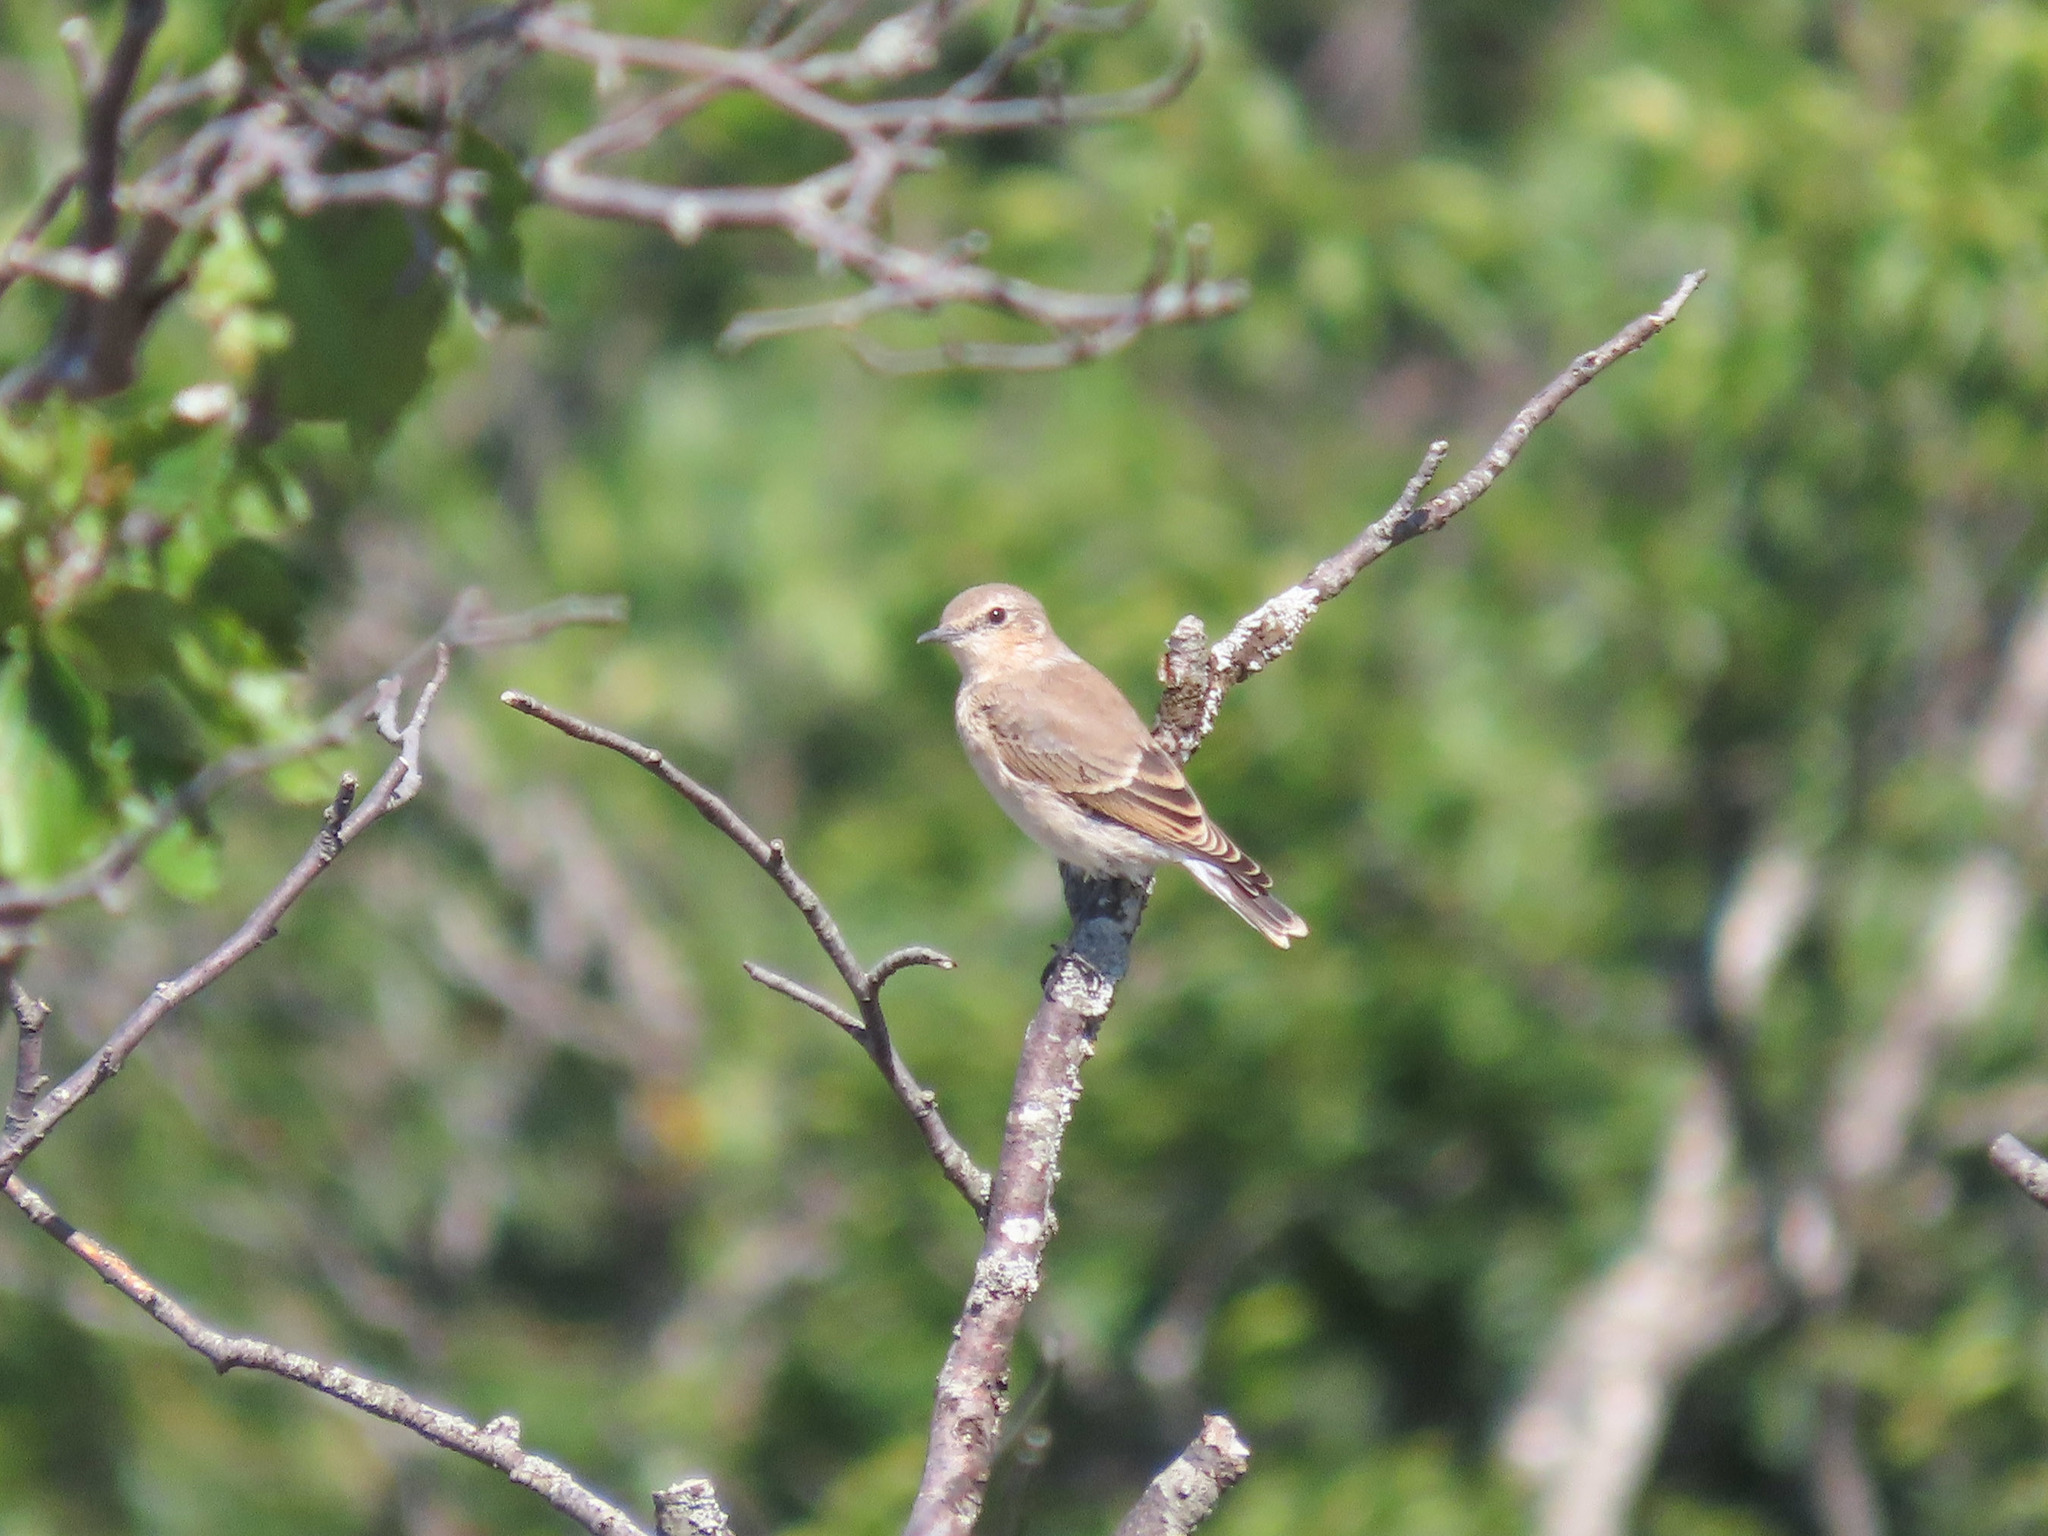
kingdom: Animalia
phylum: Chordata
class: Aves
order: Passeriformes
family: Muscicapidae
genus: Oenanthe
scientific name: Oenanthe oenanthe
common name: Northern wheatear
